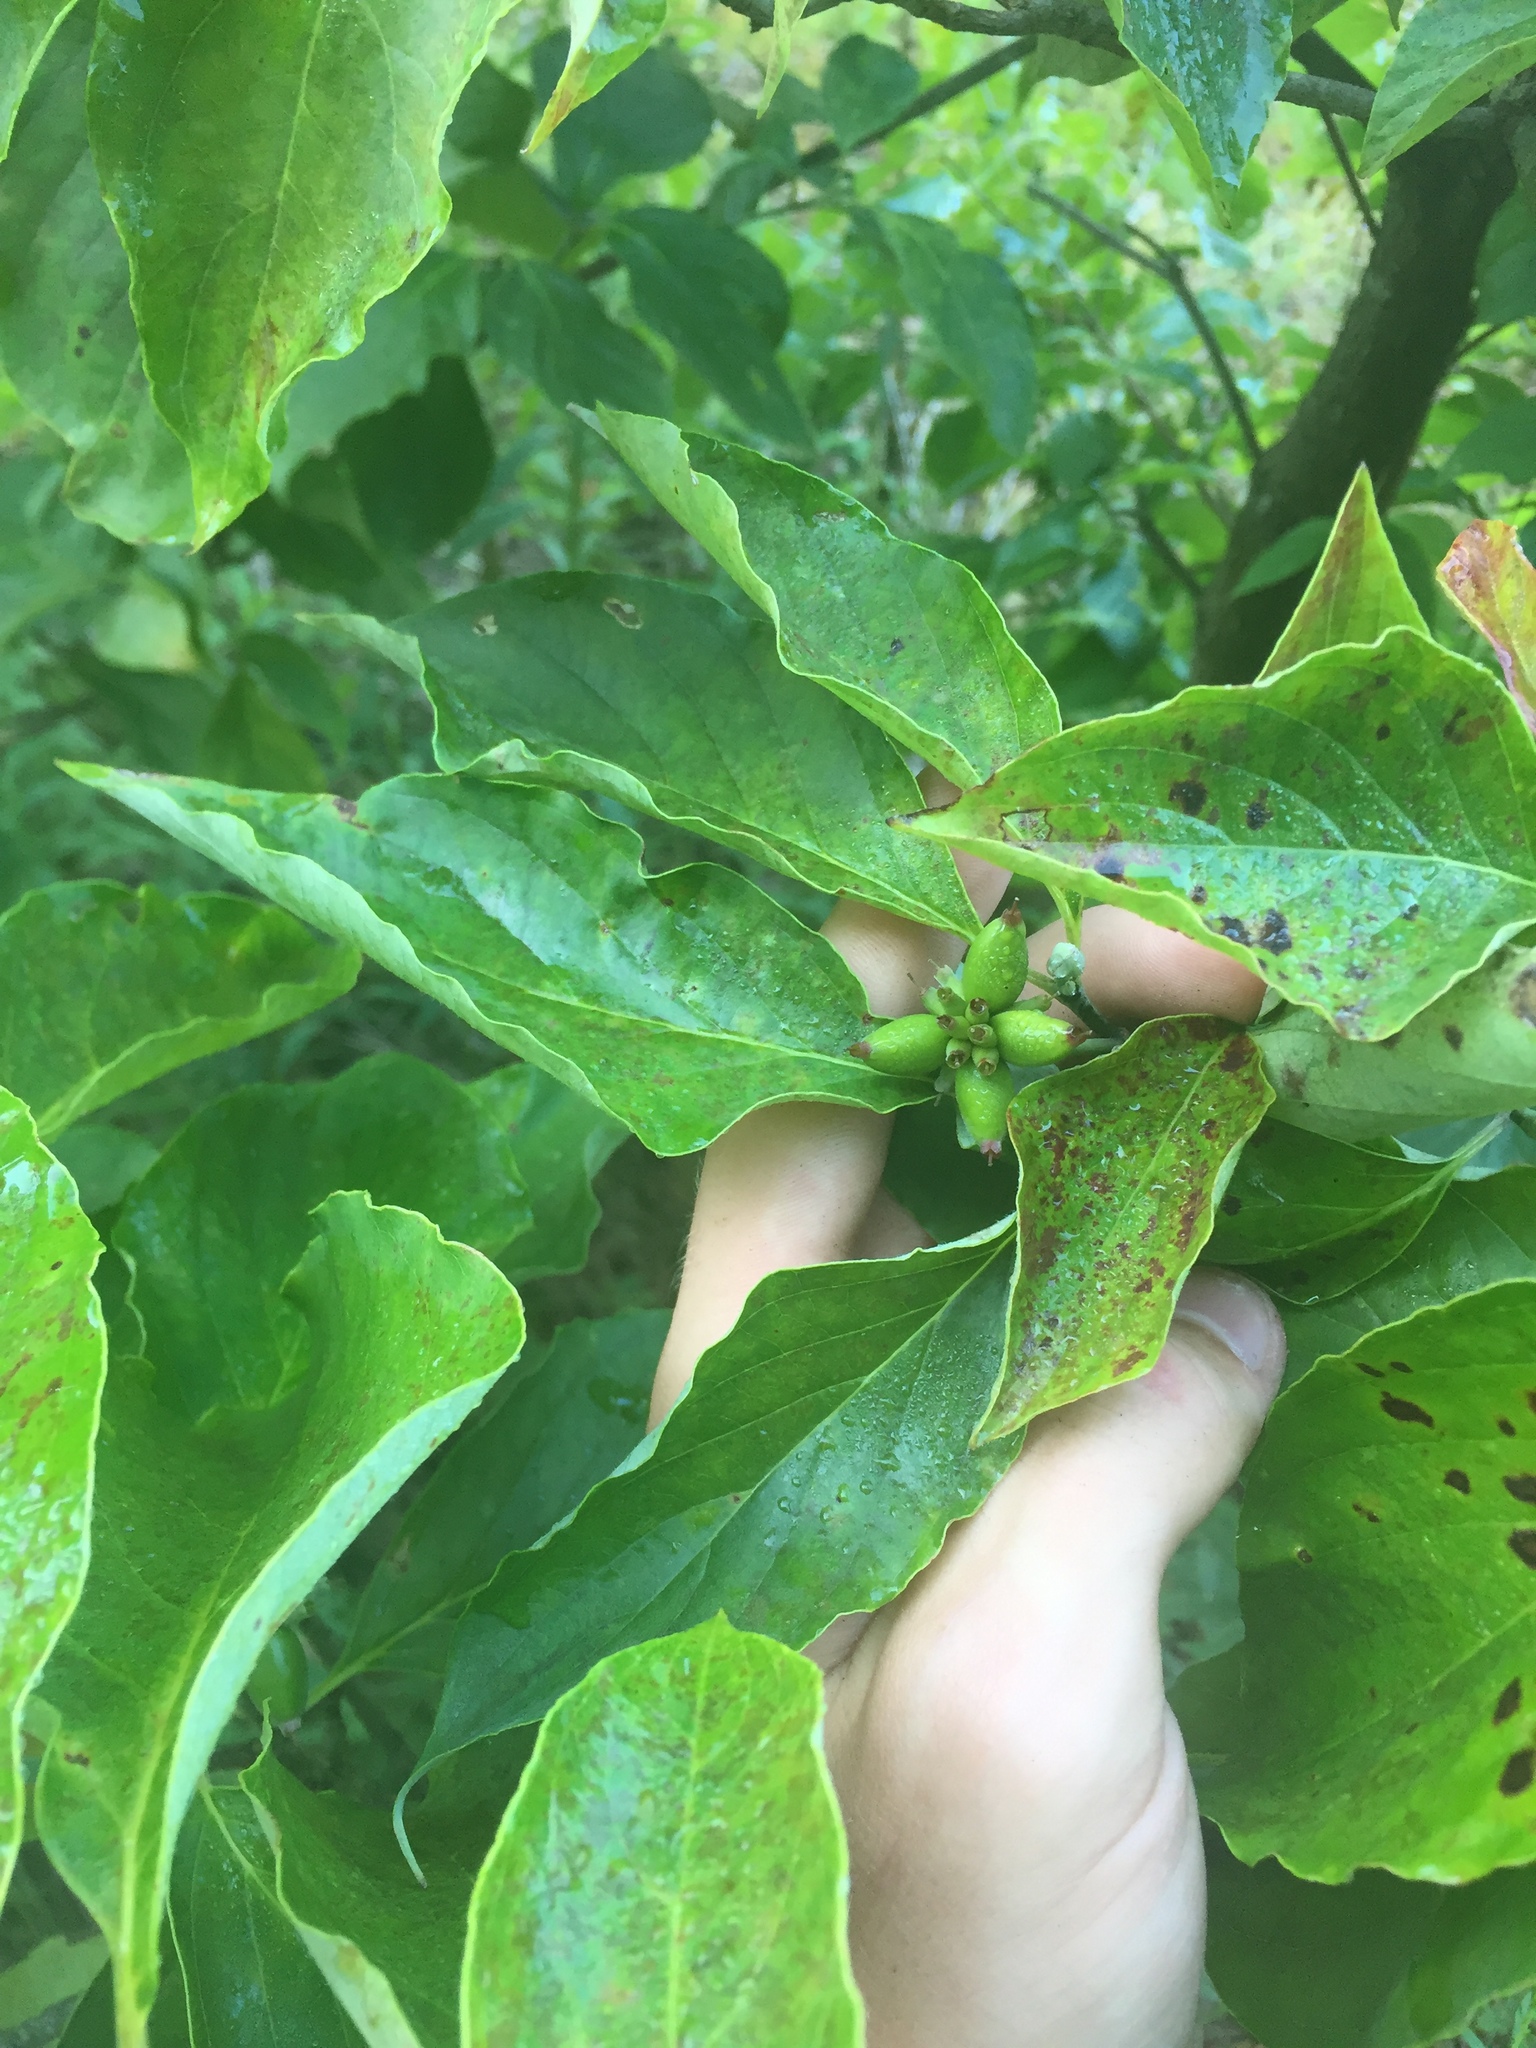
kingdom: Plantae
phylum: Tracheophyta
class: Magnoliopsida
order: Cornales
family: Cornaceae
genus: Cornus
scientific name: Cornus florida
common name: Flowering dogwood
